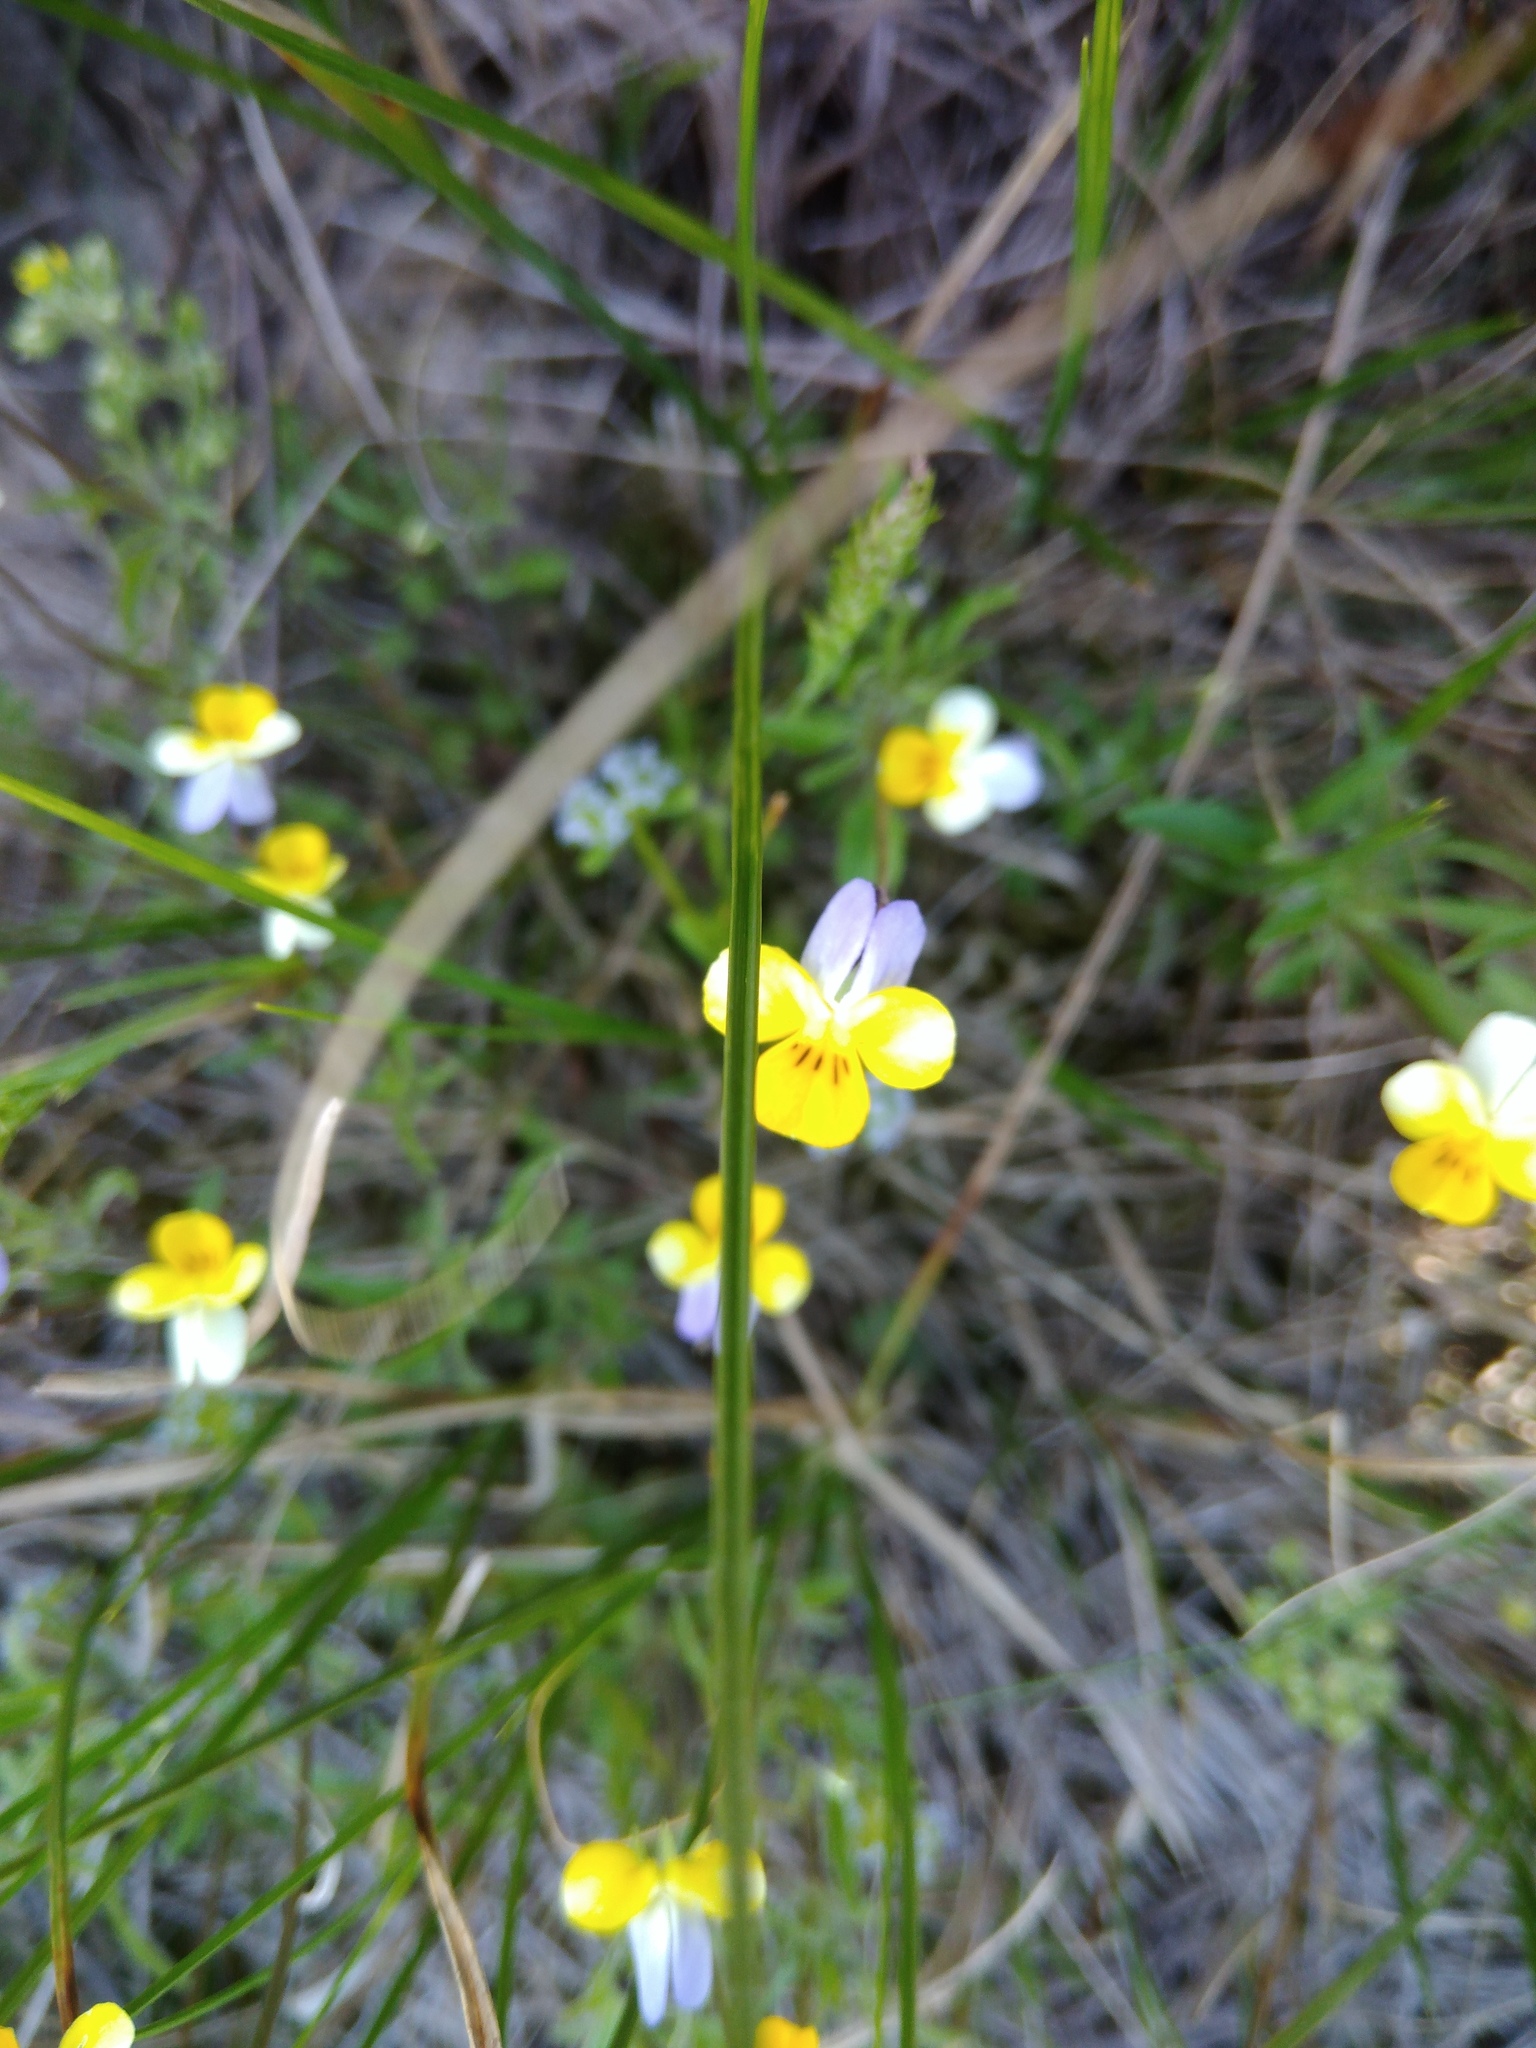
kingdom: Plantae
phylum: Tracheophyta
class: Magnoliopsida
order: Malpighiales
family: Violaceae
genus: Viola
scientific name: Viola hymettia
